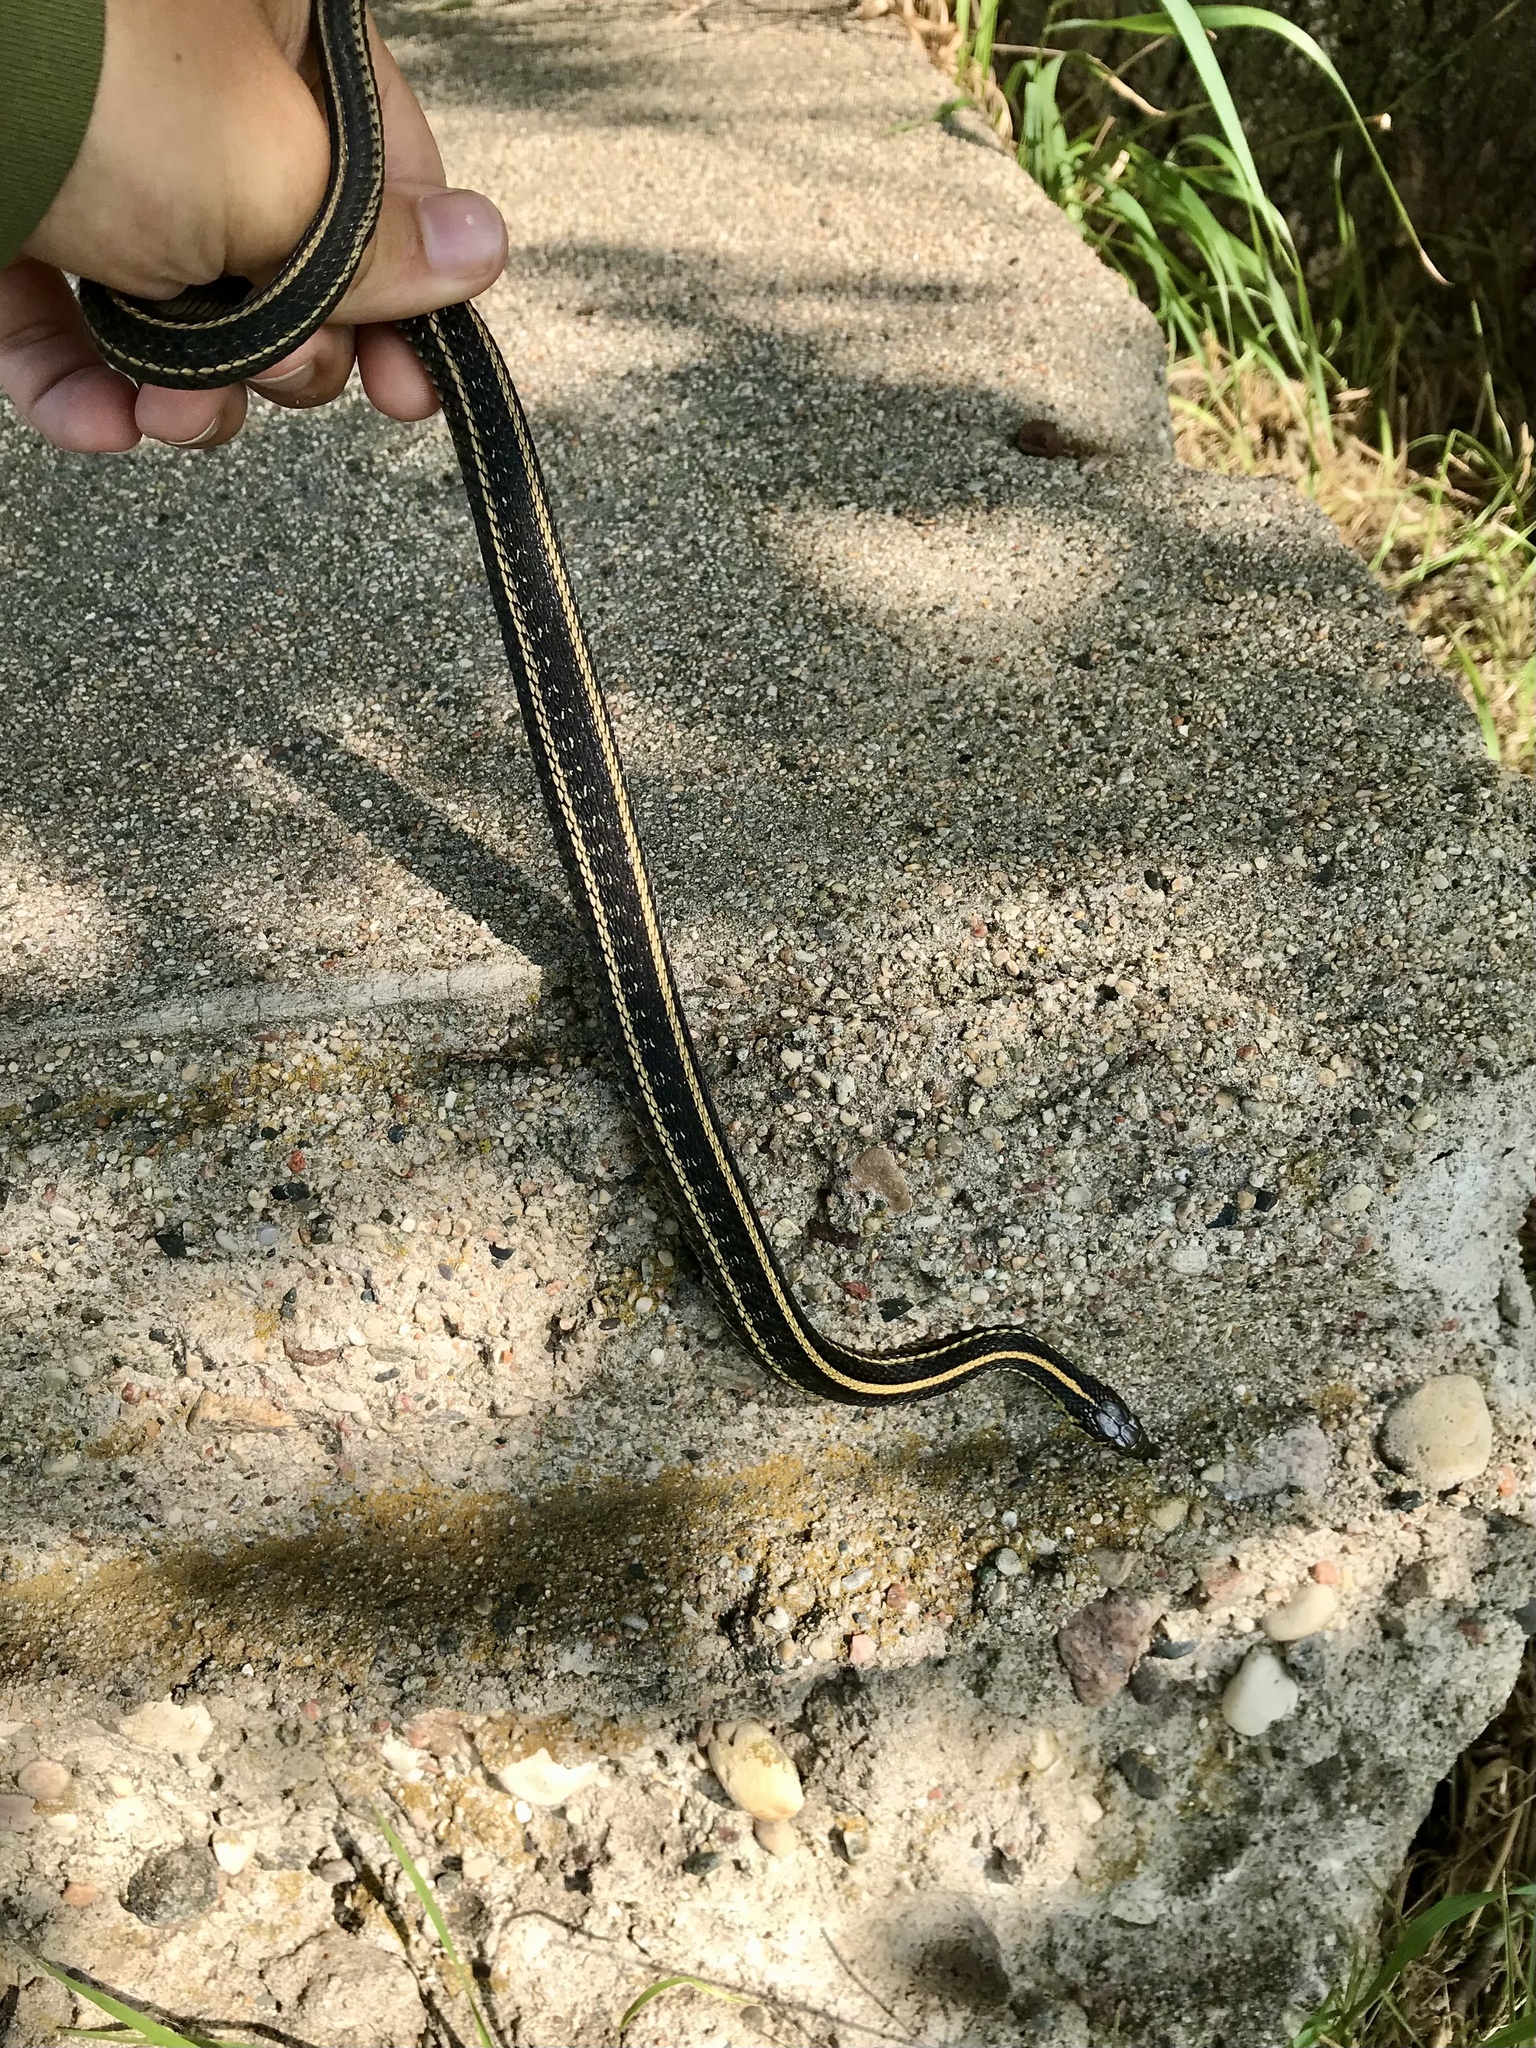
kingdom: Animalia
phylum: Chordata
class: Squamata
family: Colubridae
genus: Thamnophis
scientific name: Thamnophis radix
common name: Plains garter snake
